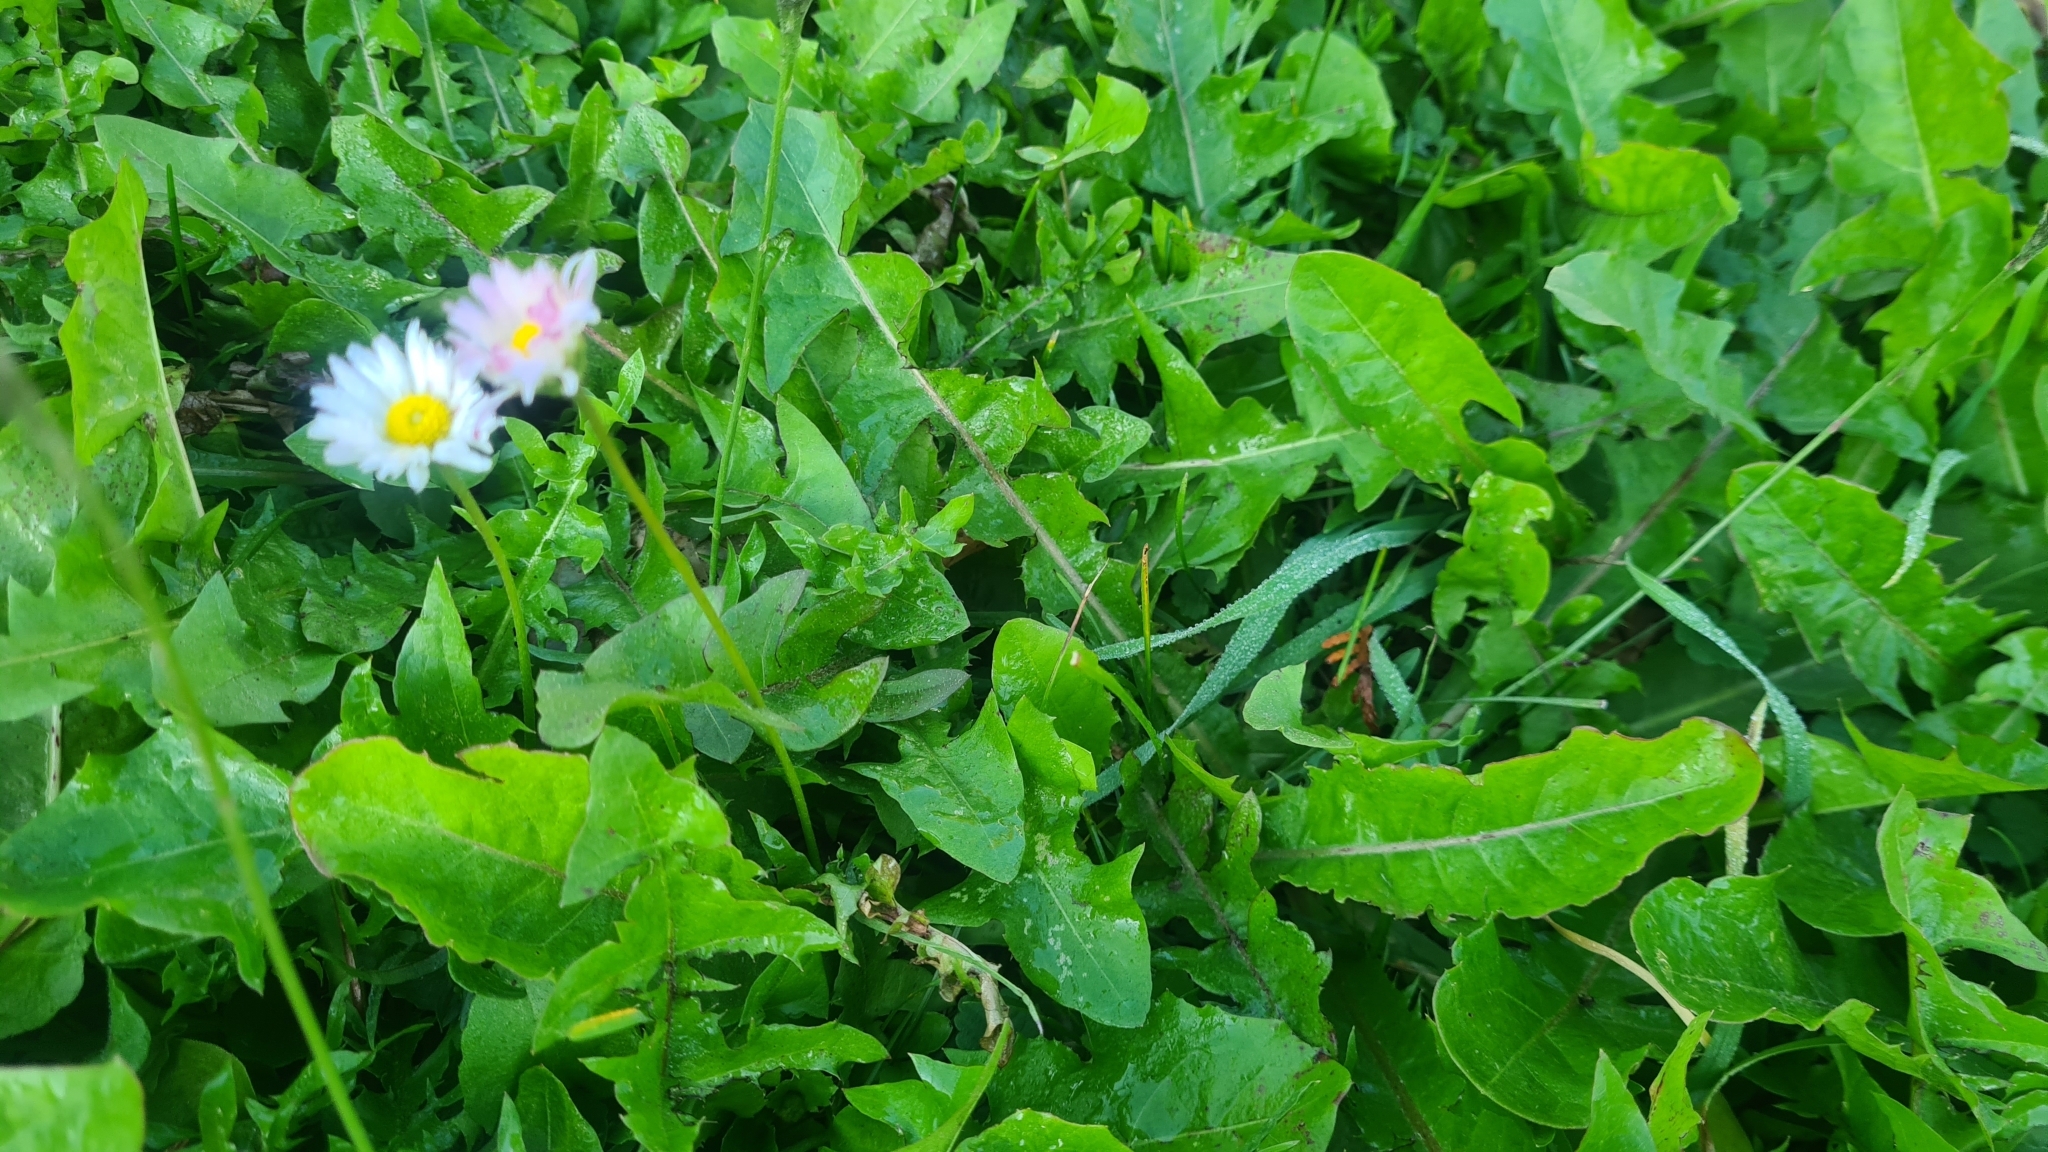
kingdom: Plantae
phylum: Tracheophyta
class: Magnoliopsida
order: Asterales
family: Asteraceae
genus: Bellis
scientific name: Bellis perennis
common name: Lawndaisy
